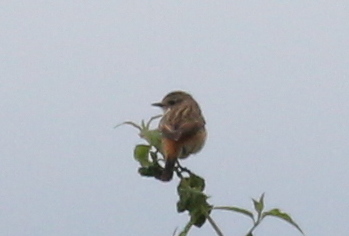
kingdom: Animalia
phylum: Chordata
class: Aves
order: Passeriformes
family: Muscicapidae
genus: Saxicola
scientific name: Saxicola stejnegeri
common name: Stejneger's stonechat
